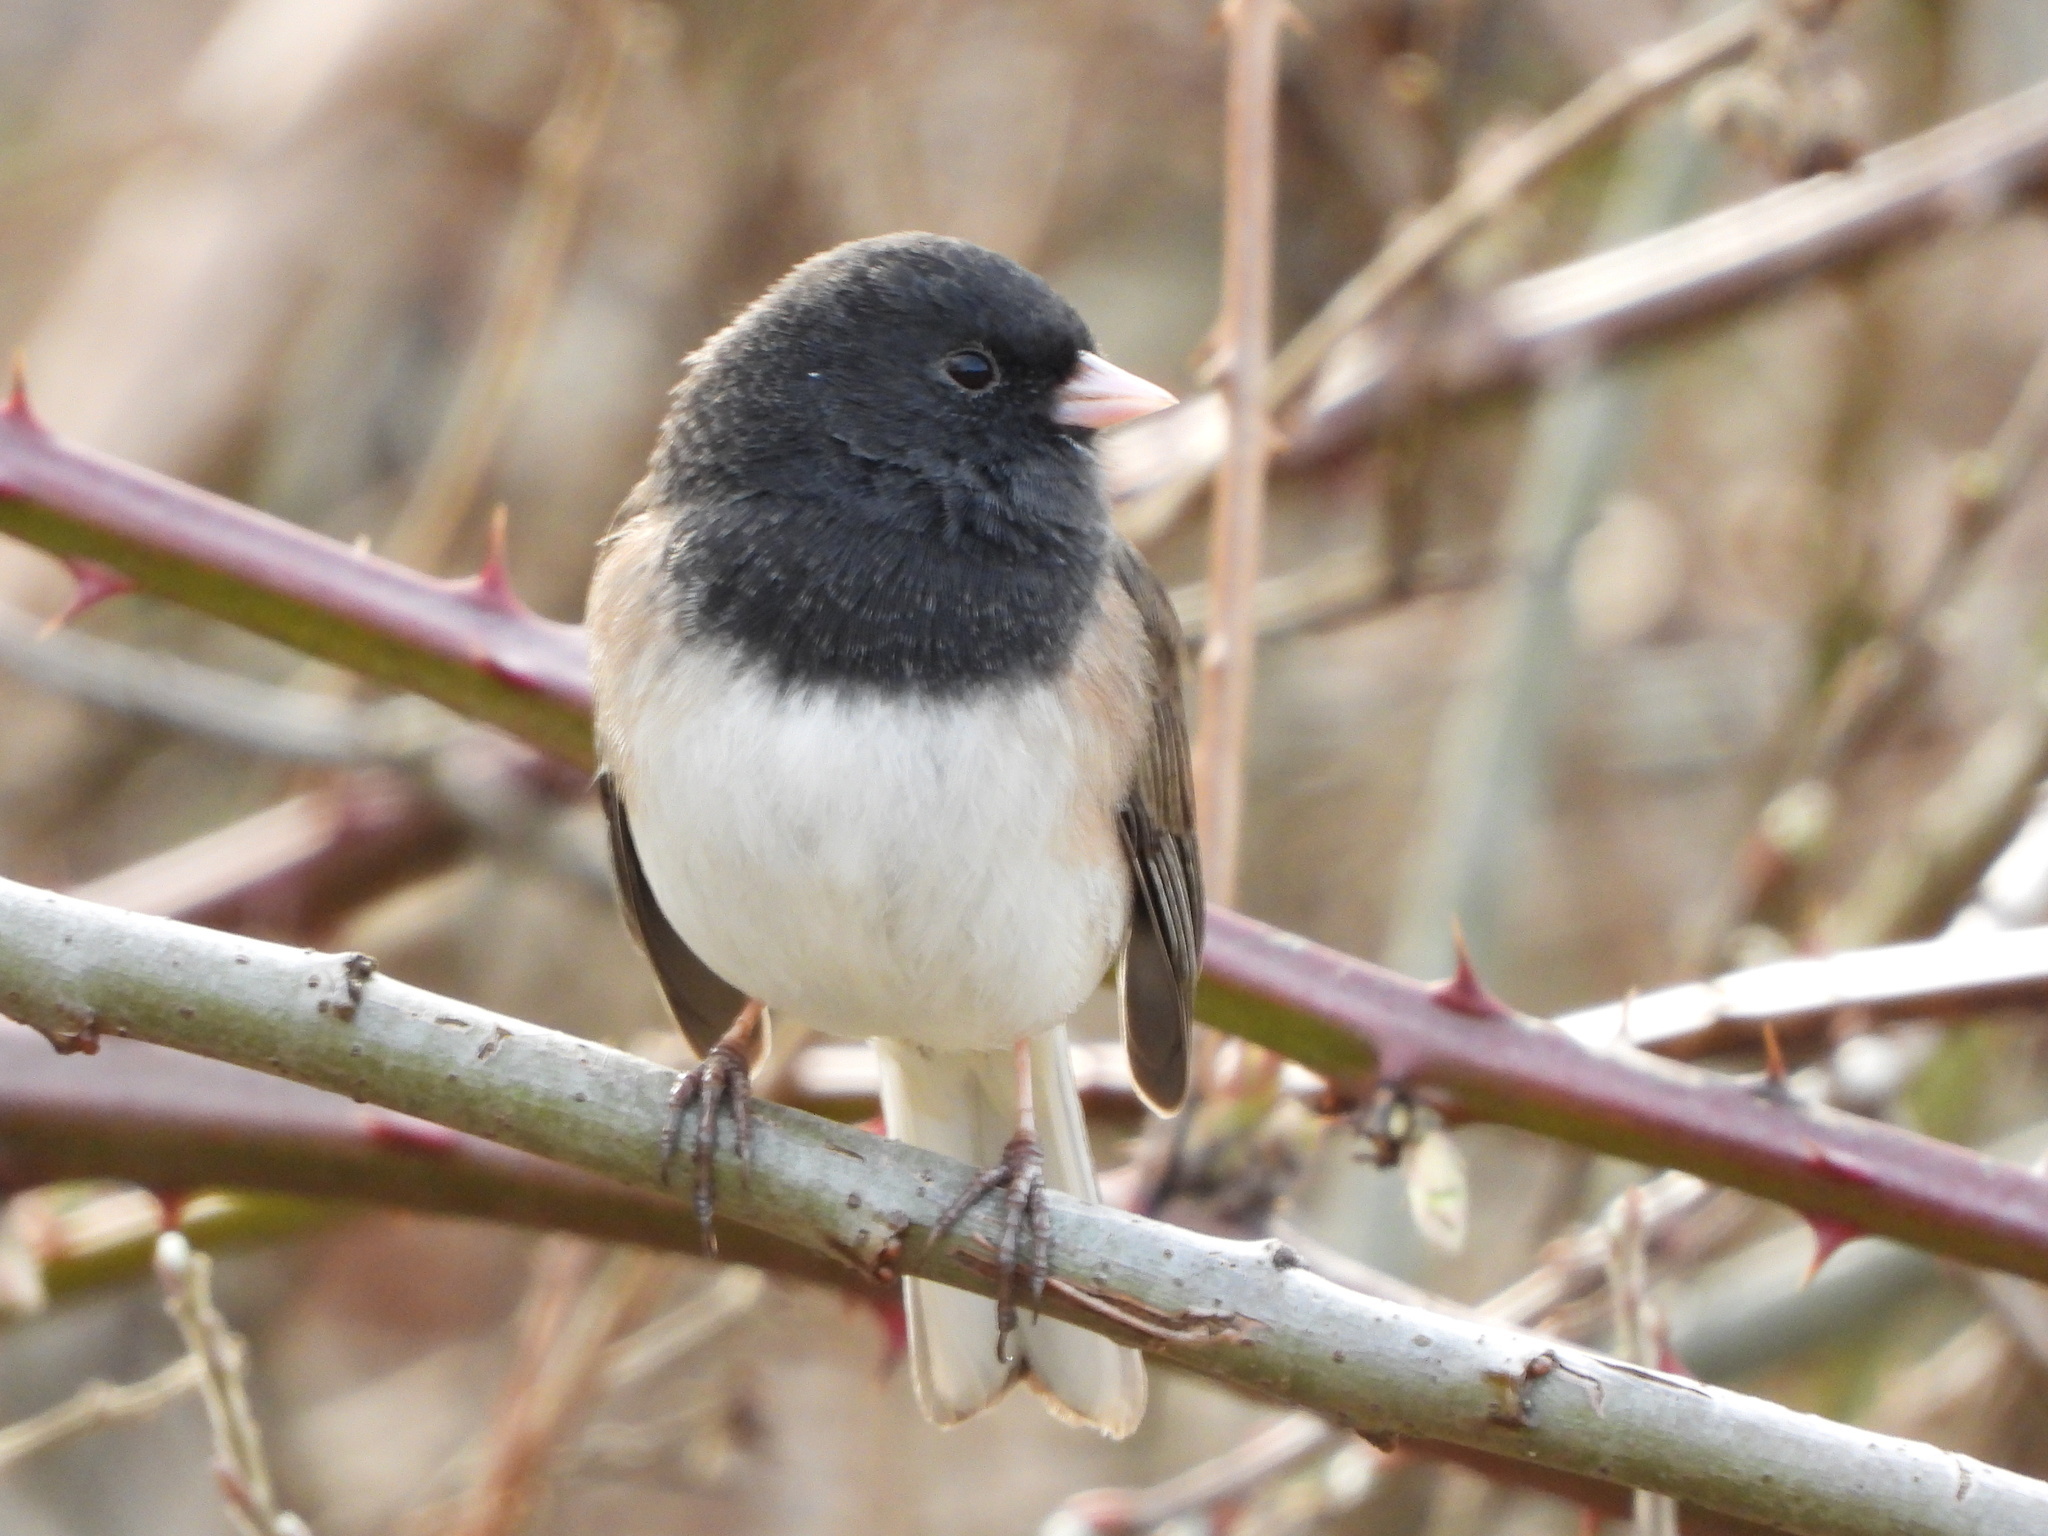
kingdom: Animalia
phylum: Chordata
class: Aves
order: Passeriformes
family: Passerellidae
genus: Junco
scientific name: Junco hyemalis
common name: Dark-eyed junco
